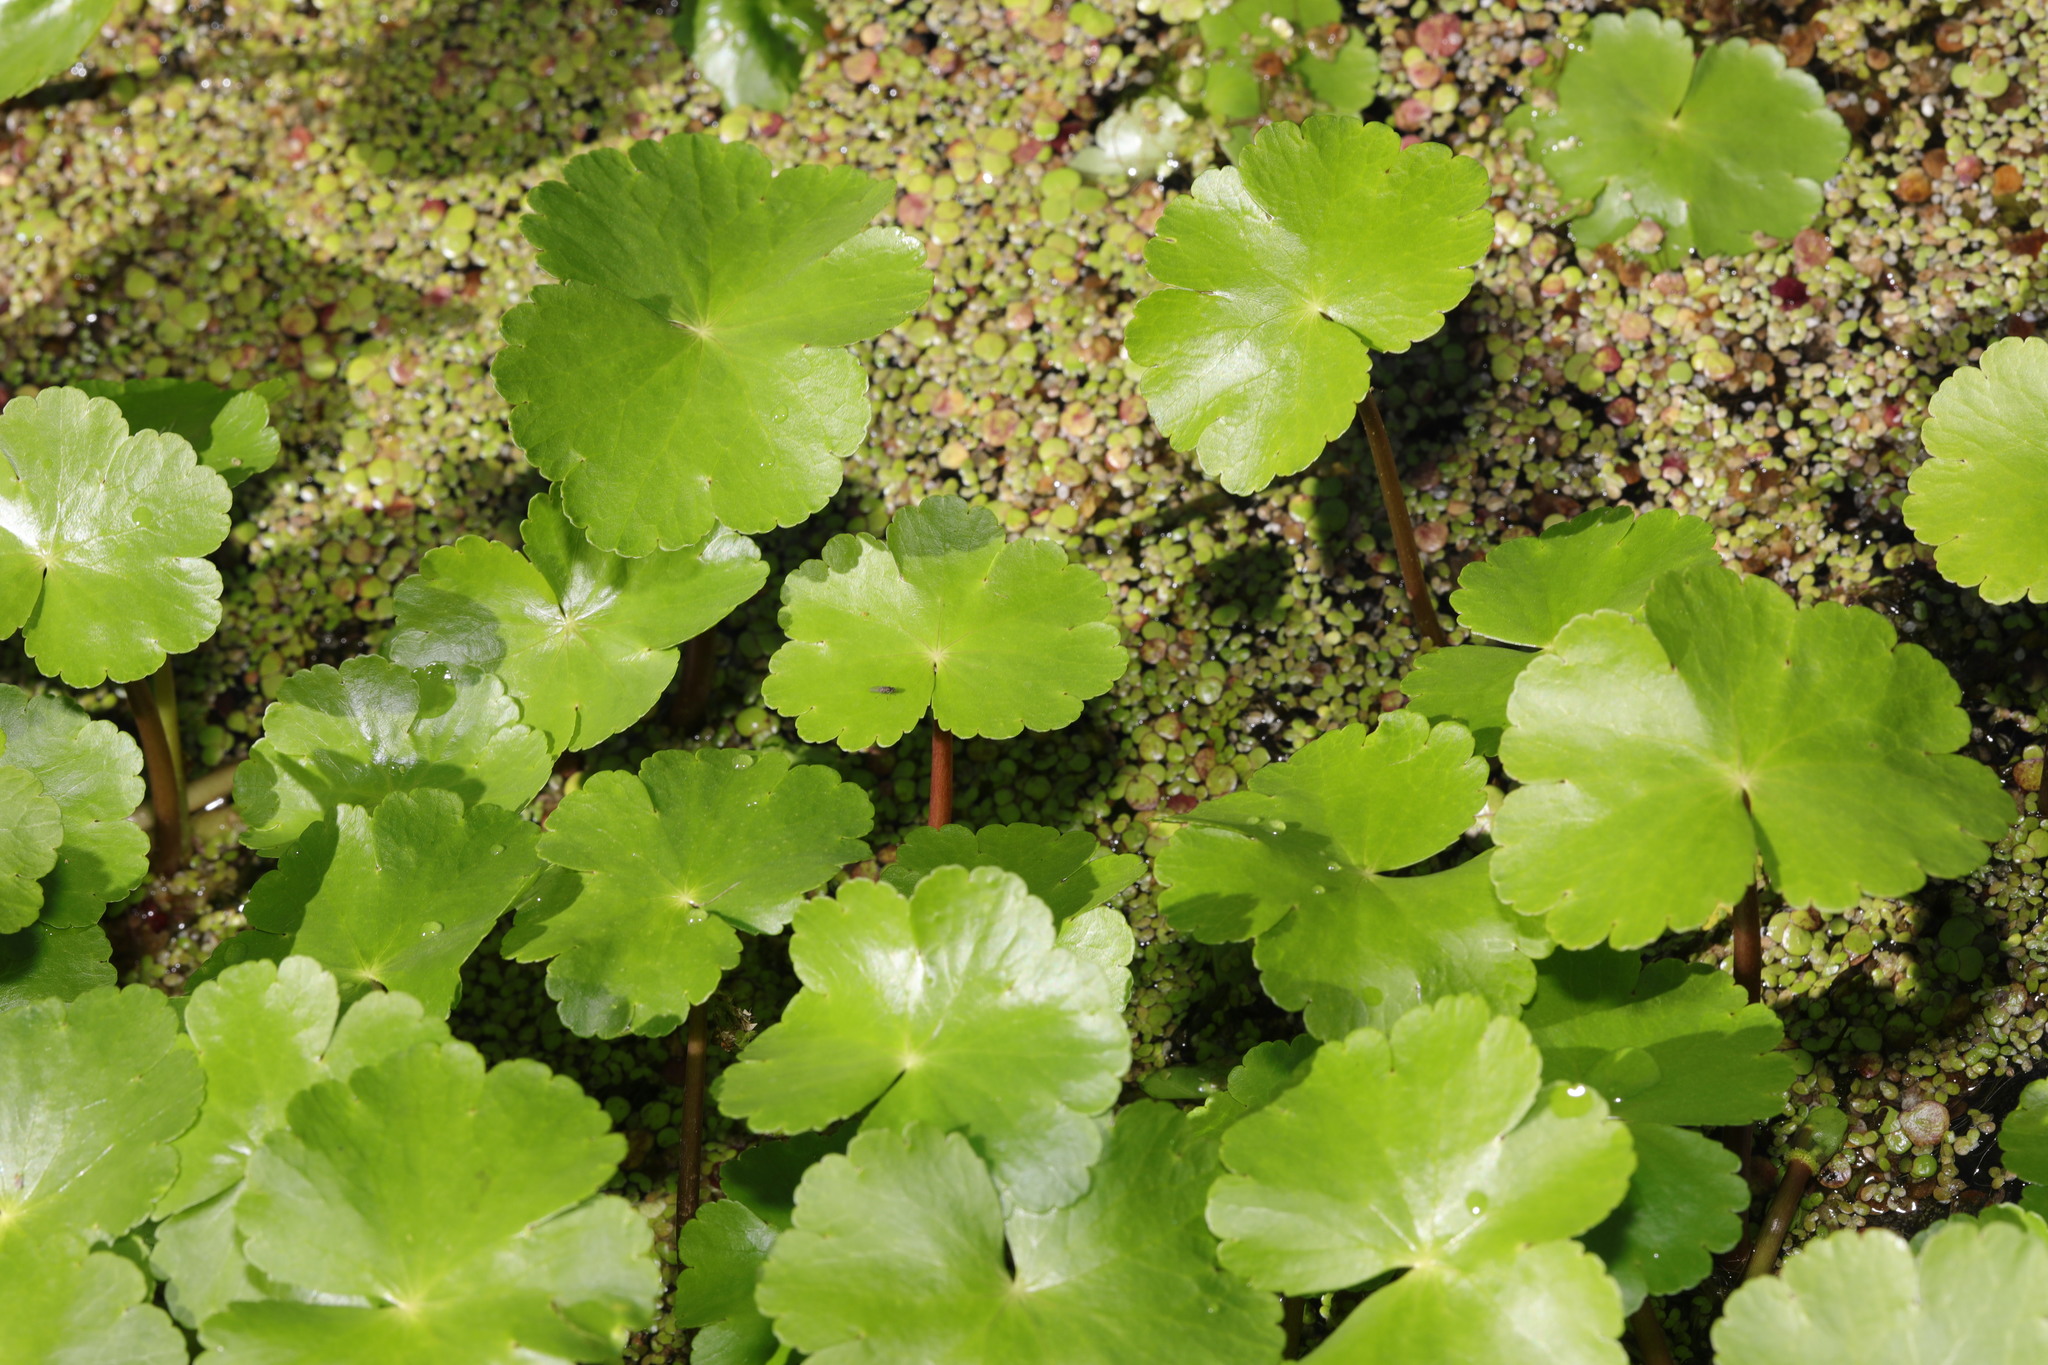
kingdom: Plantae
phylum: Tracheophyta
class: Magnoliopsida
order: Apiales
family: Araliaceae
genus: Hydrocotyle
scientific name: Hydrocotyle ranunculoides
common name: Floating pennywort
